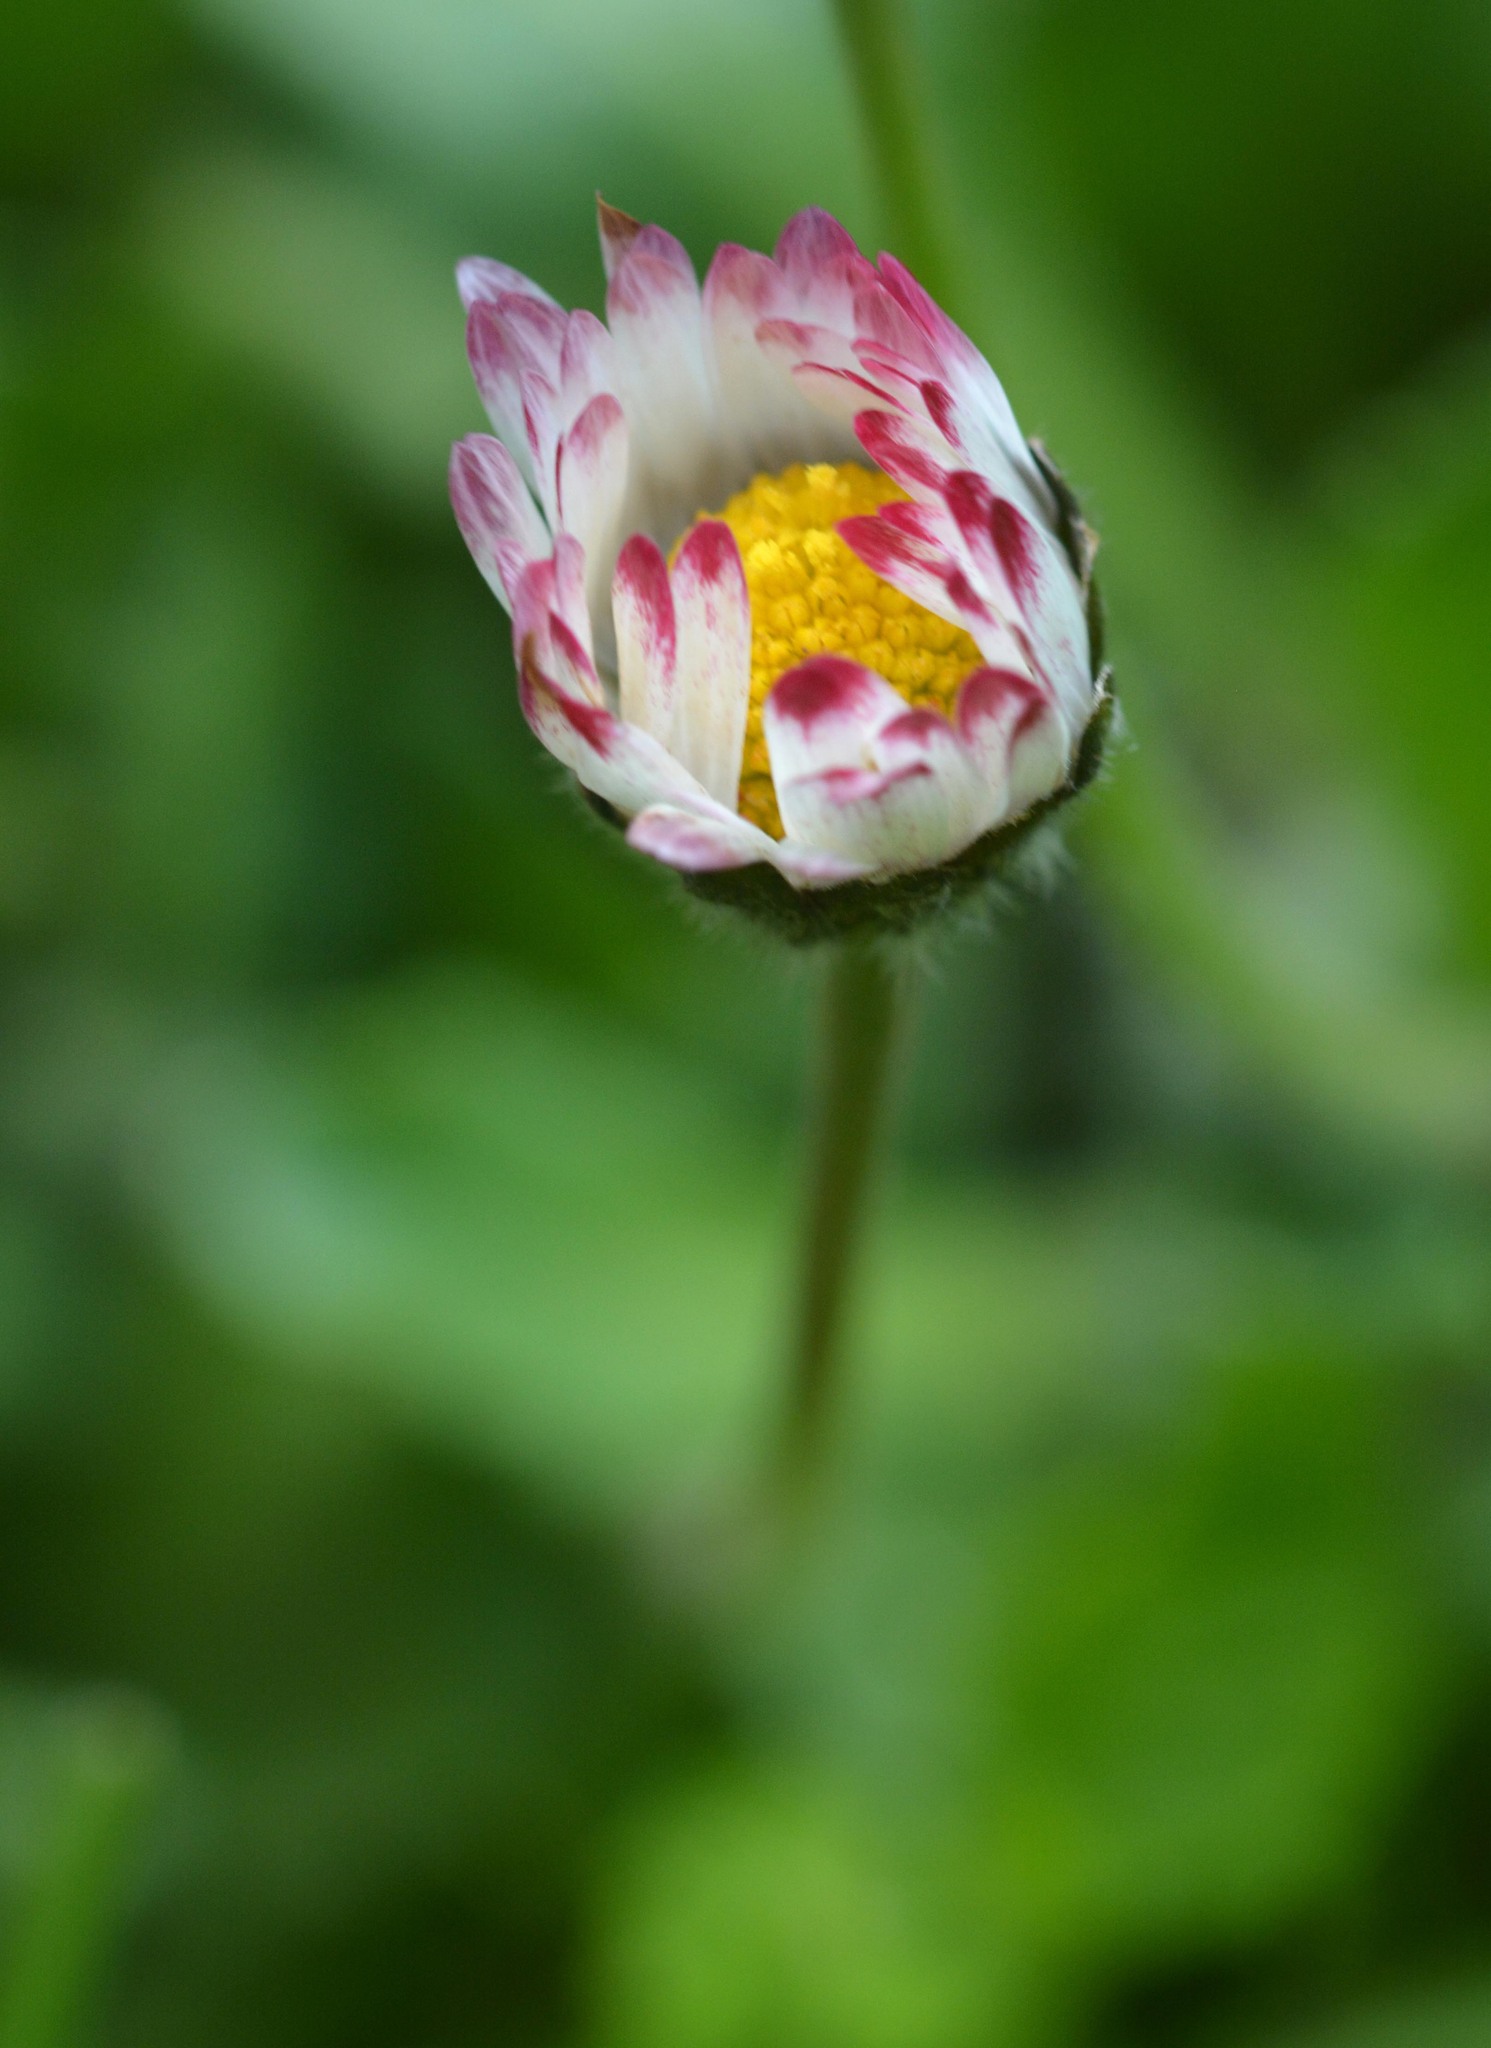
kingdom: Plantae
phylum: Tracheophyta
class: Magnoliopsida
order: Asterales
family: Asteraceae
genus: Bellis
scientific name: Bellis perennis
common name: Lawndaisy
